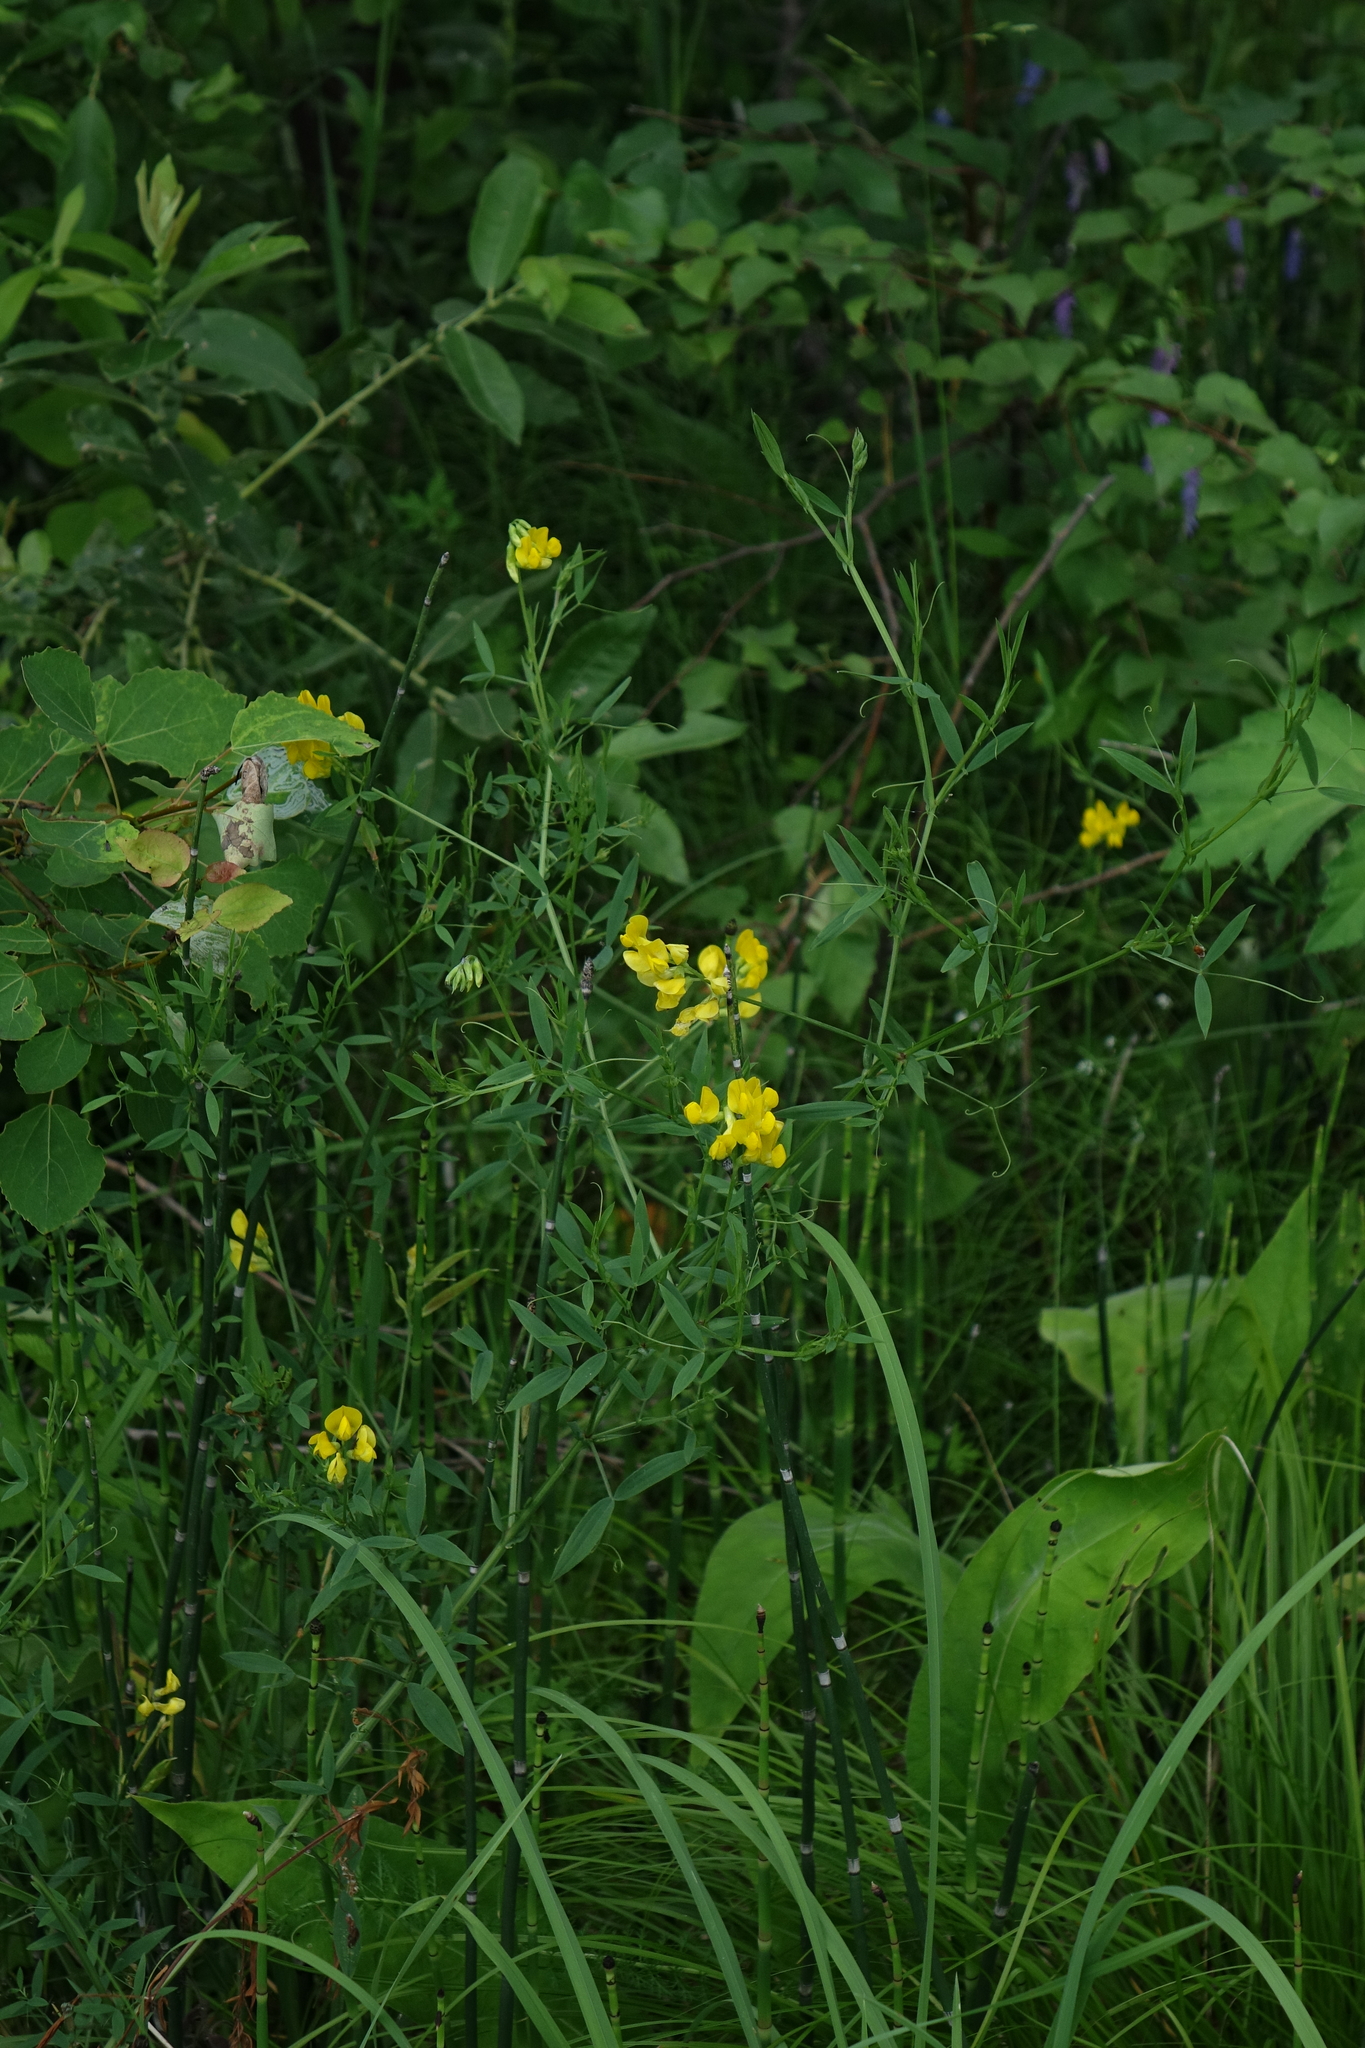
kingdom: Plantae
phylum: Tracheophyta
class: Magnoliopsida
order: Fabales
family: Fabaceae
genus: Lathyrus
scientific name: Lathyrus pratensis
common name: Meadow vetchling
